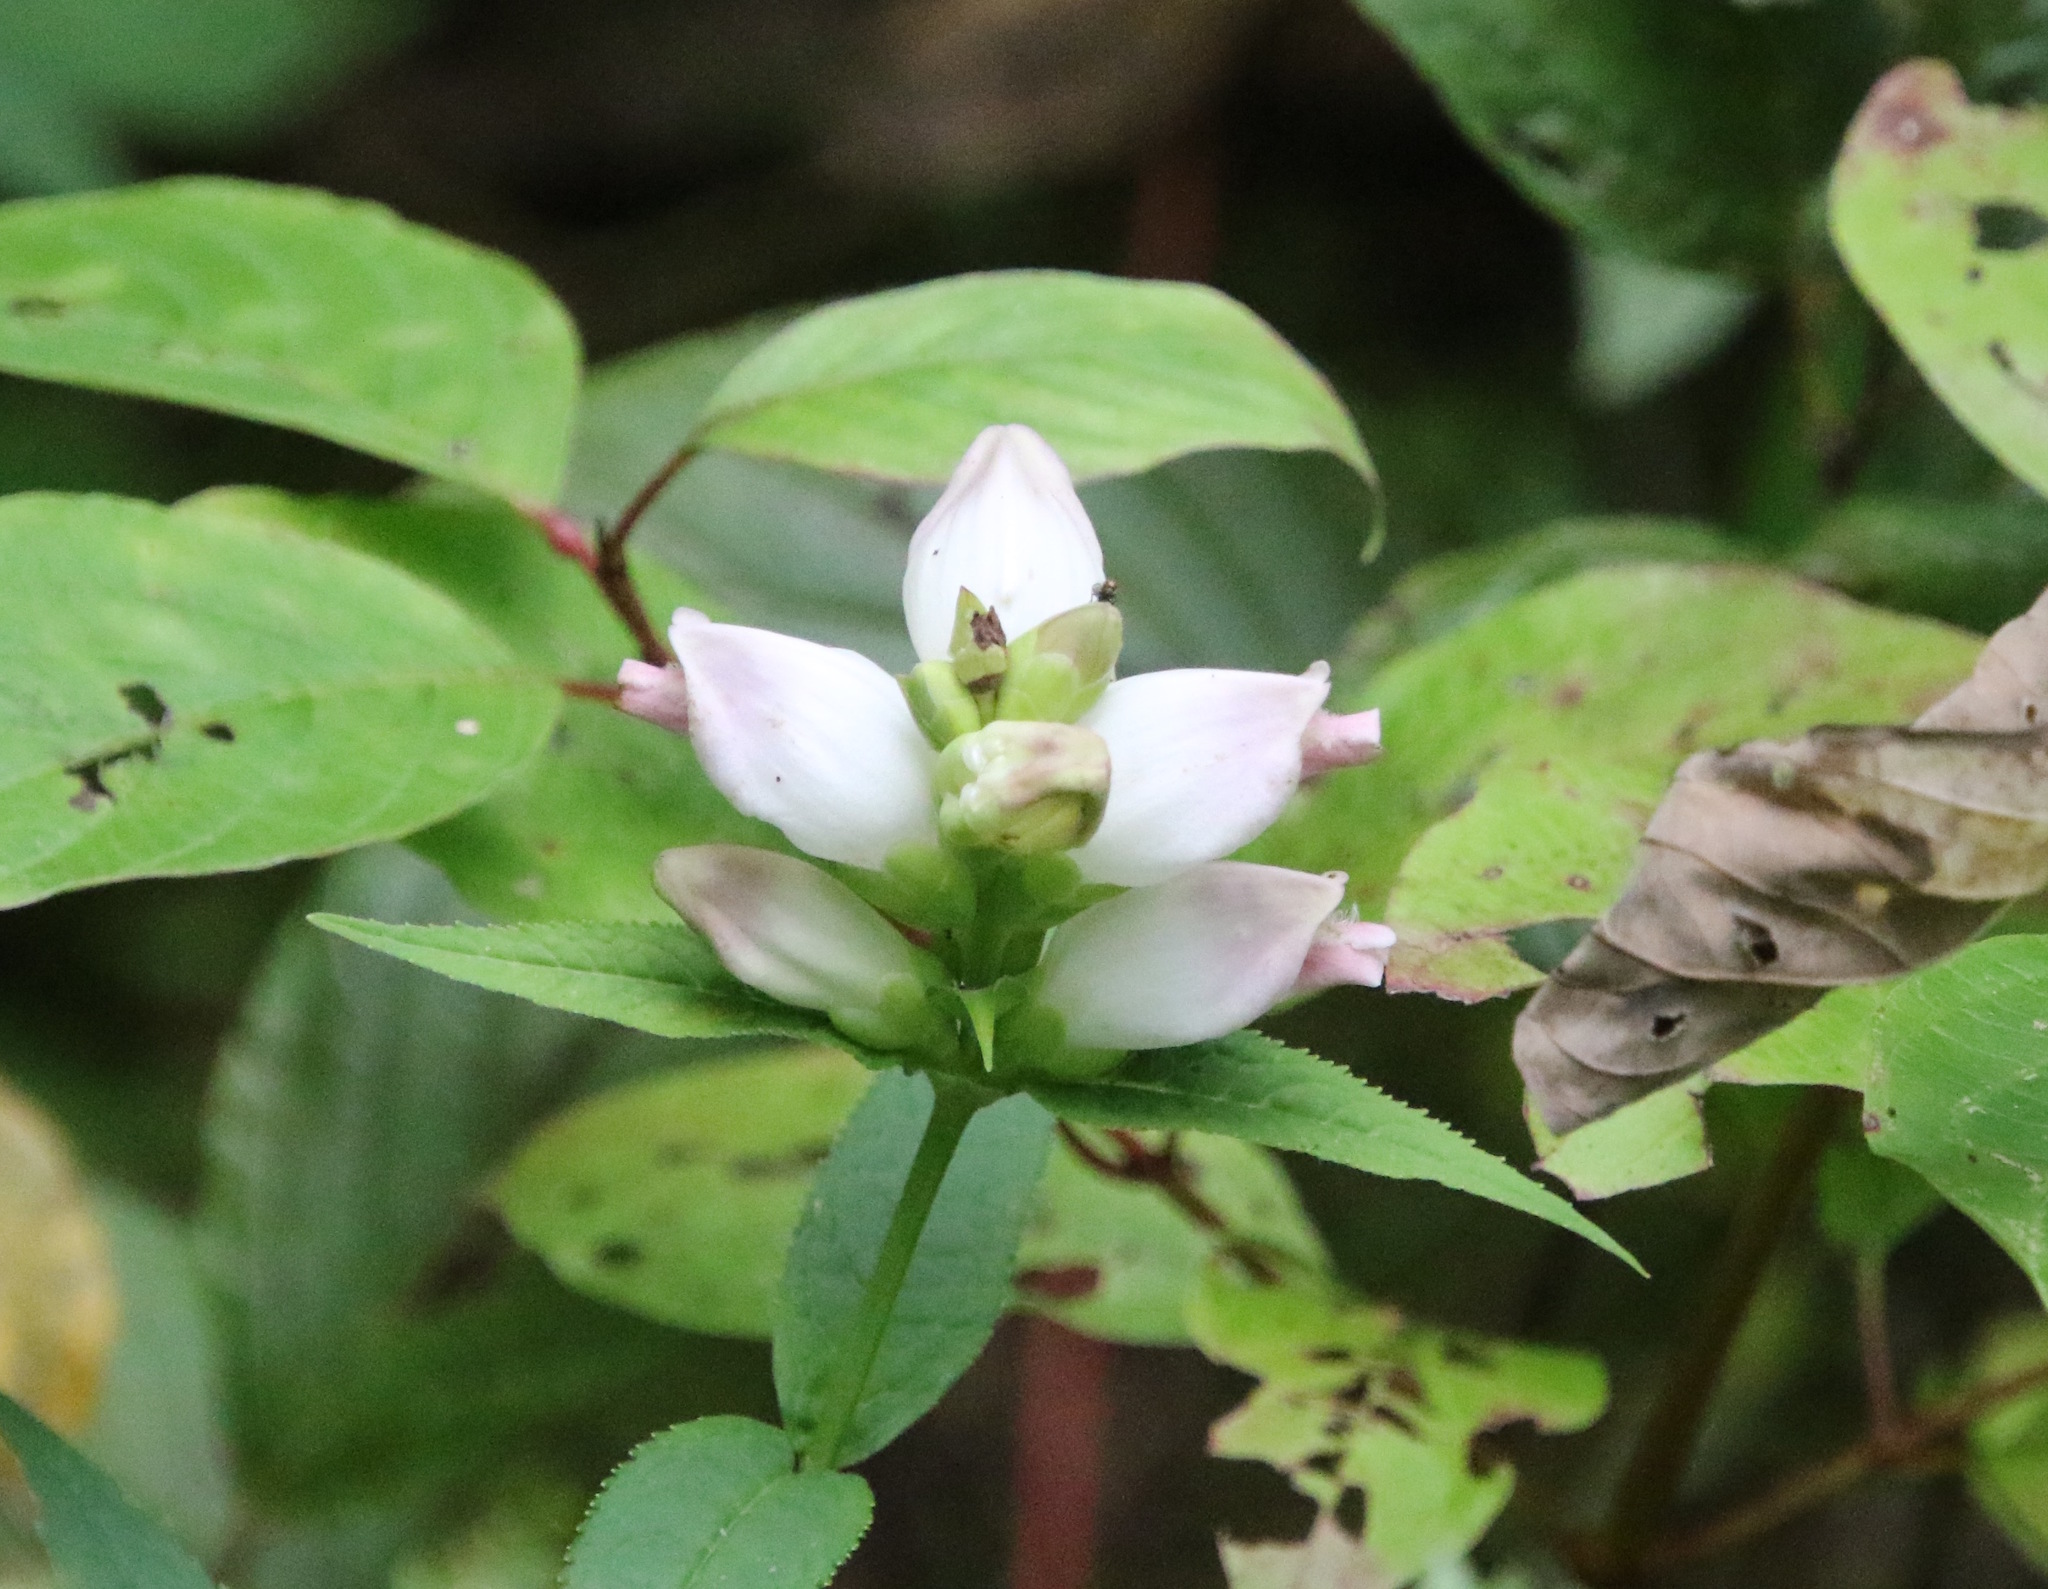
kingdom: Plantae
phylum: Tracheophyta
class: Magnoliopsida
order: Lamiales
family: Plantaginaceae
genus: Chelone
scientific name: Chelone glabra
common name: Snakehead
